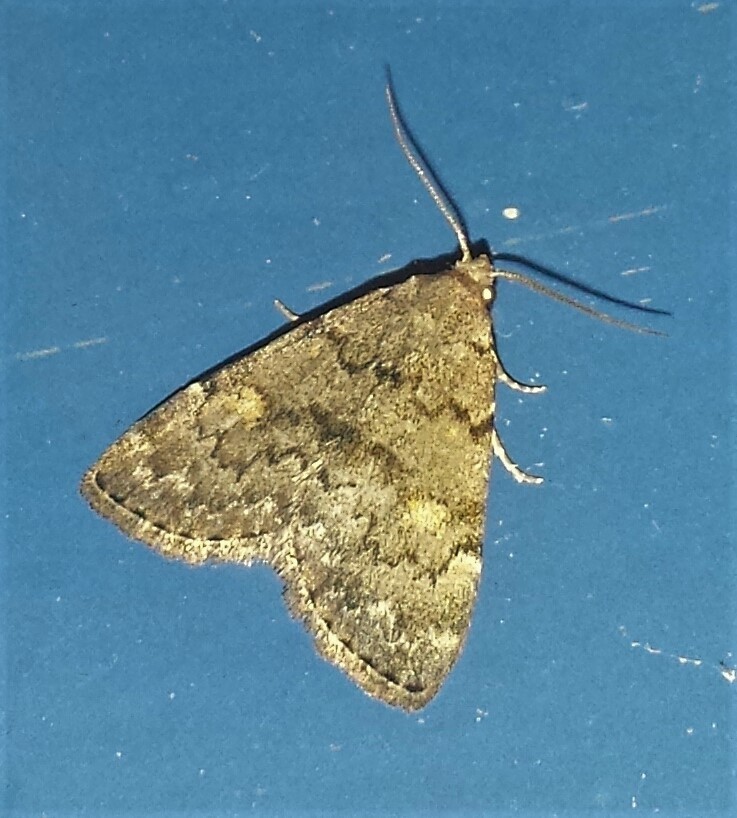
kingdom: Animalia
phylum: Arthropoda
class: Insecta
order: Lepidoptera
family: Erebidae
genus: Idia
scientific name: Idia aemula
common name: Common idia moth
